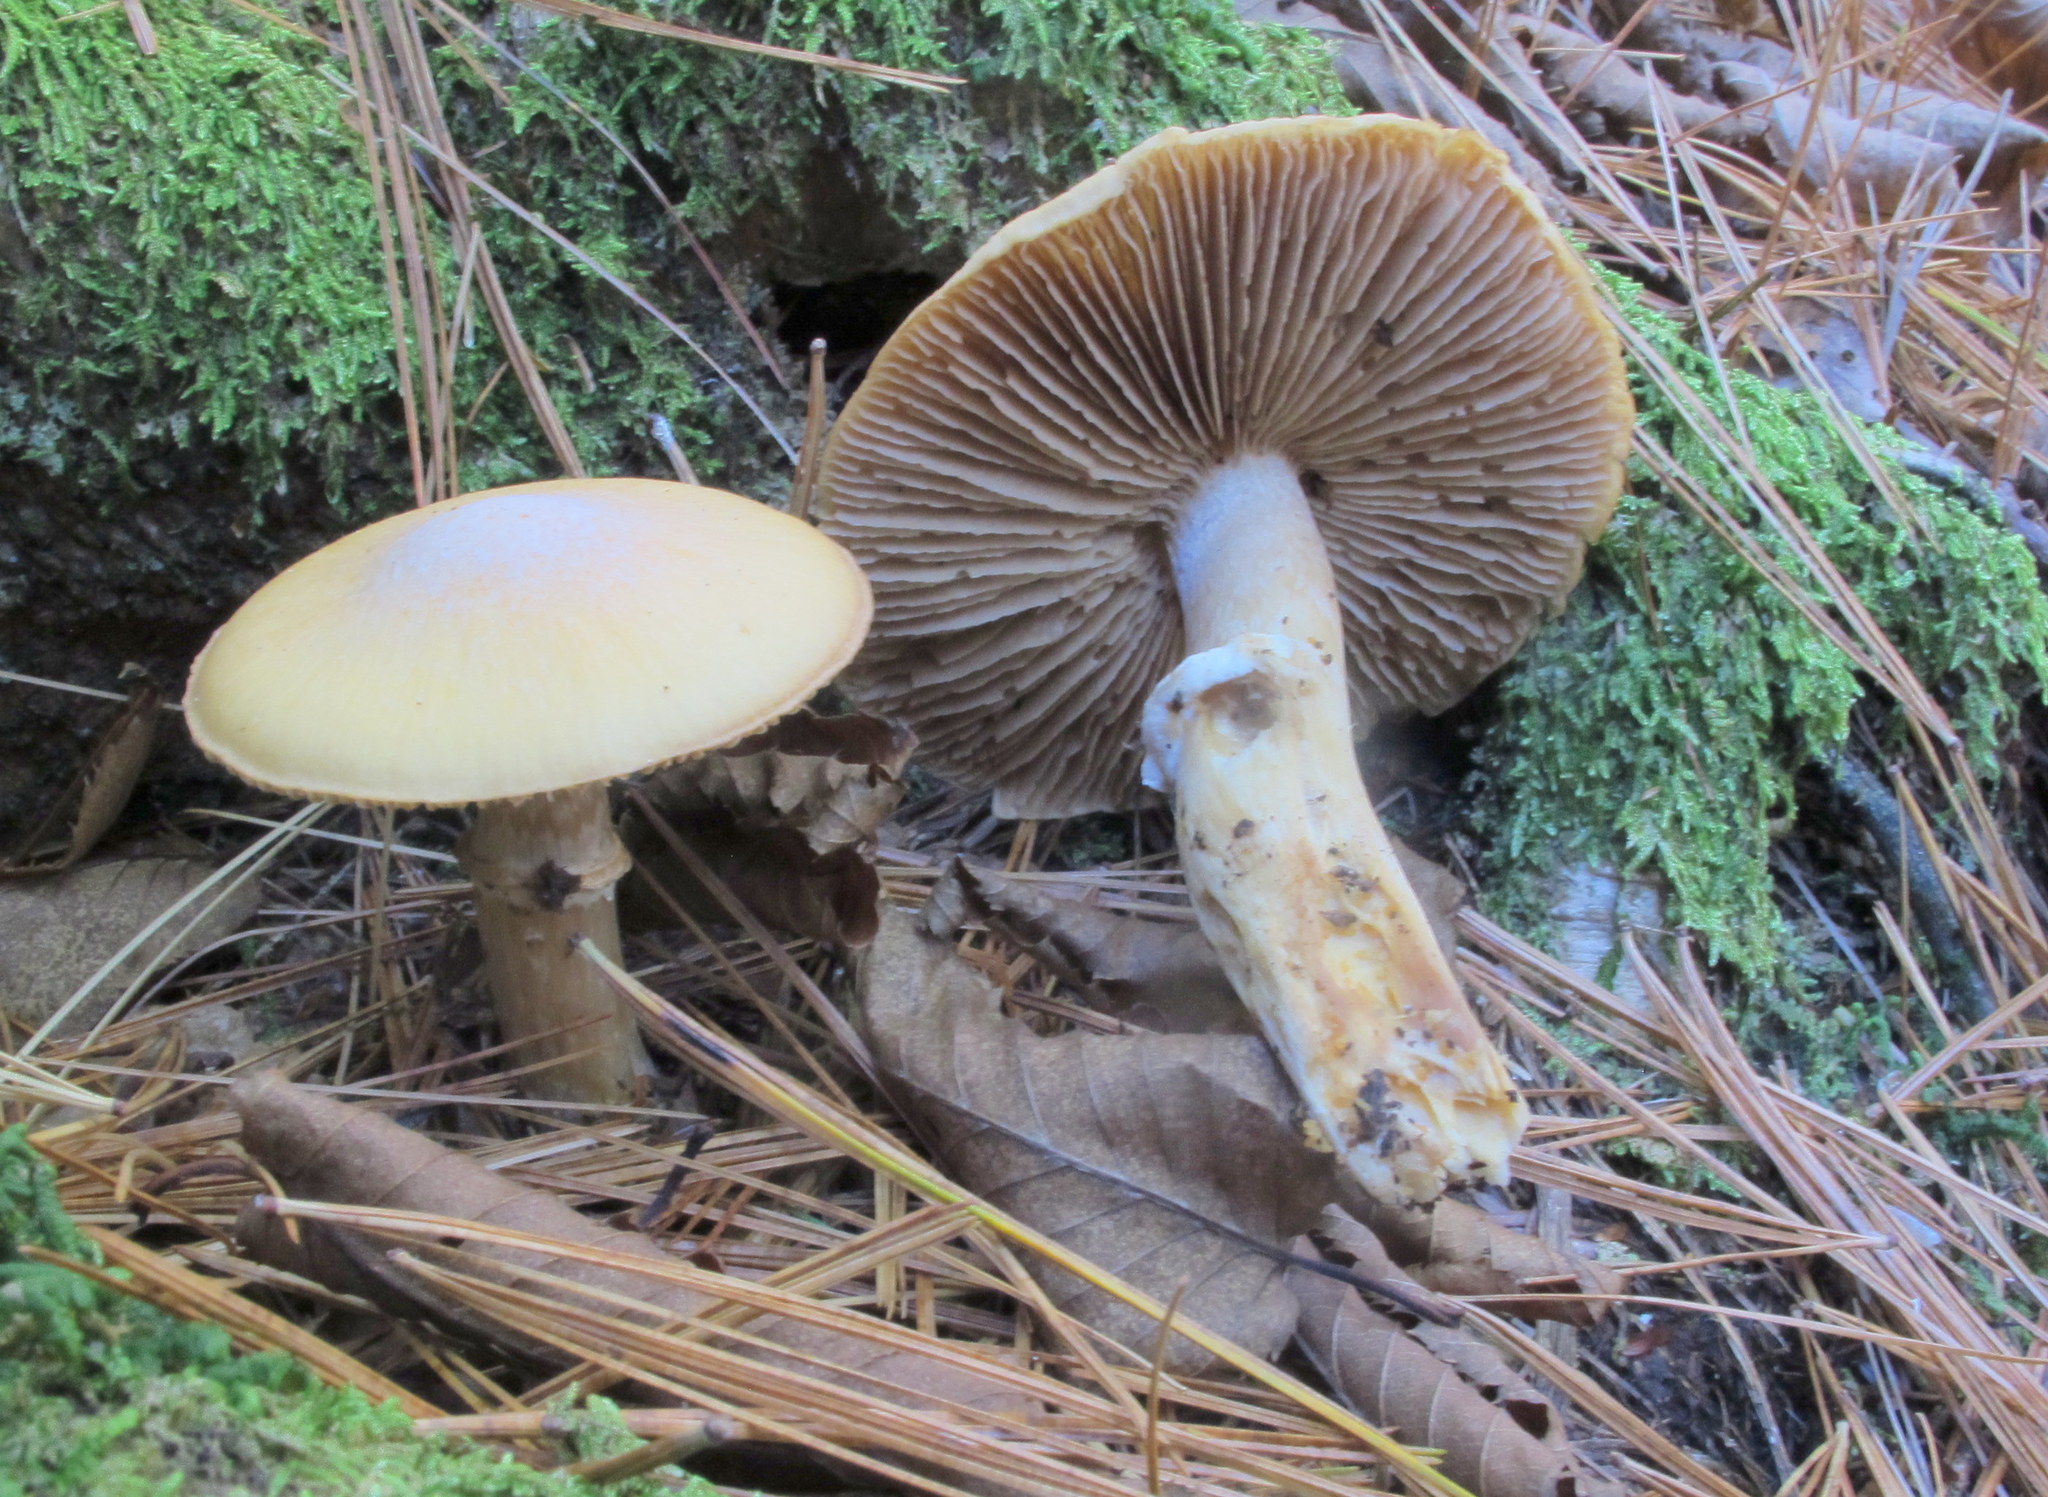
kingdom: Fungi
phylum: Basidiomycota
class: Agaricomycetes
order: Agaricales
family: Cortinariaceae
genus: Cortinarius
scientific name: Cortinarius caperatus
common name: The gypsy
